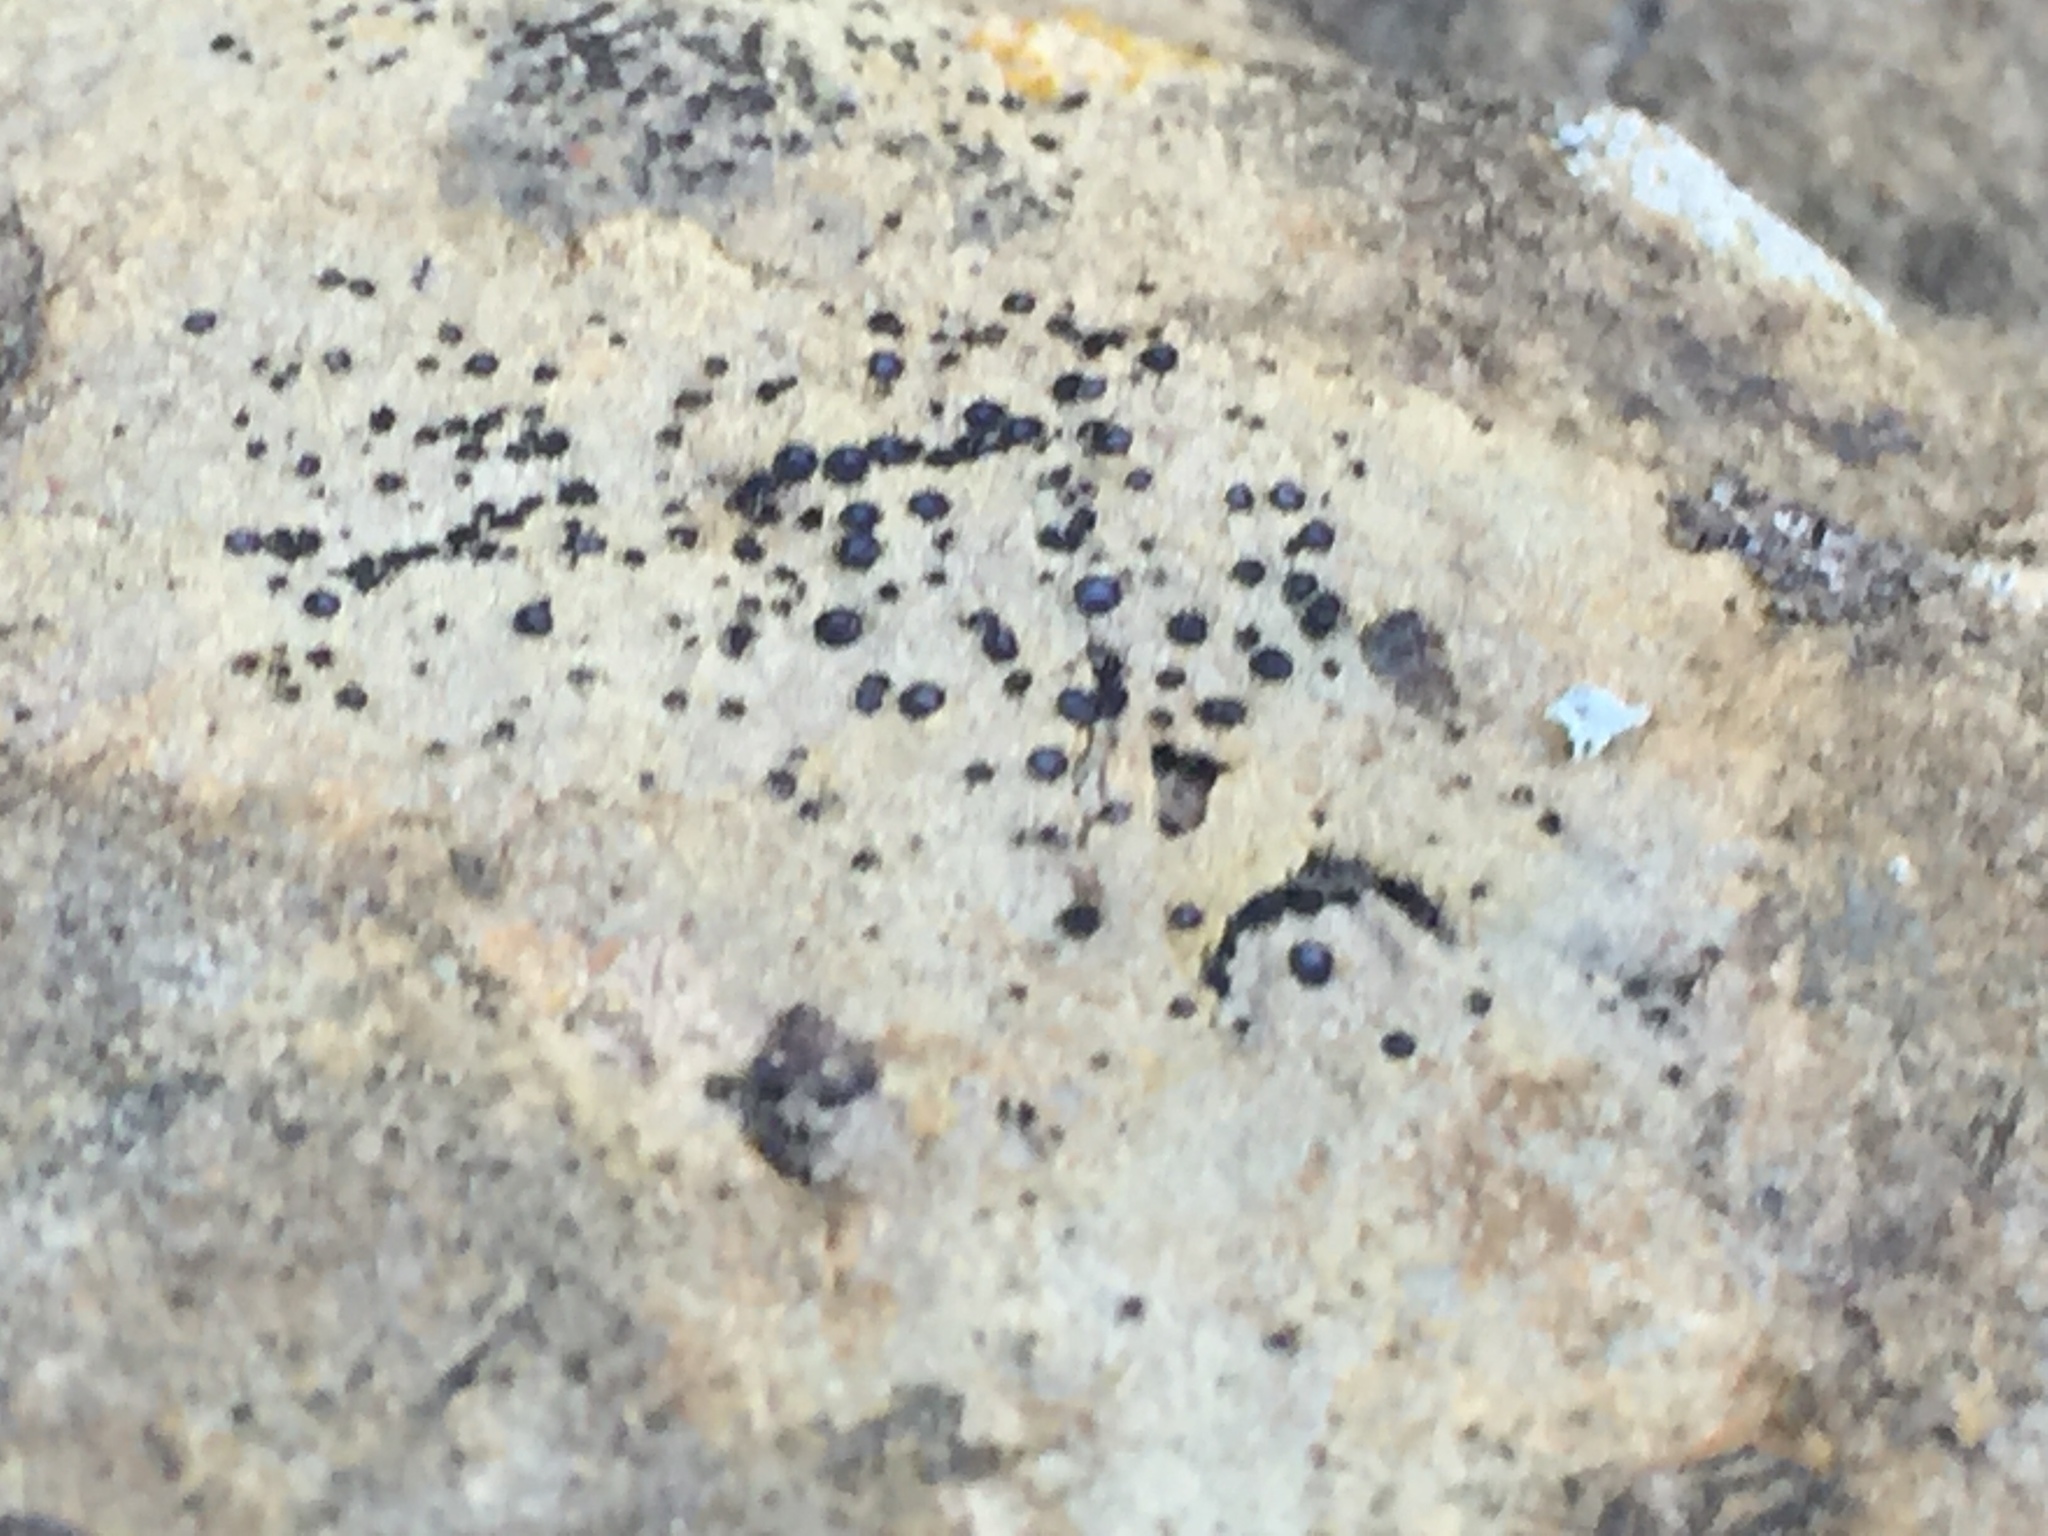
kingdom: Fungi
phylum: Ascomycota
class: Lecanoromycetes
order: Acarosporales
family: Acarosporaceae
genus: Sarcogyne
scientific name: Sarcogyne regularis
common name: Frosted grain-spored lichen
